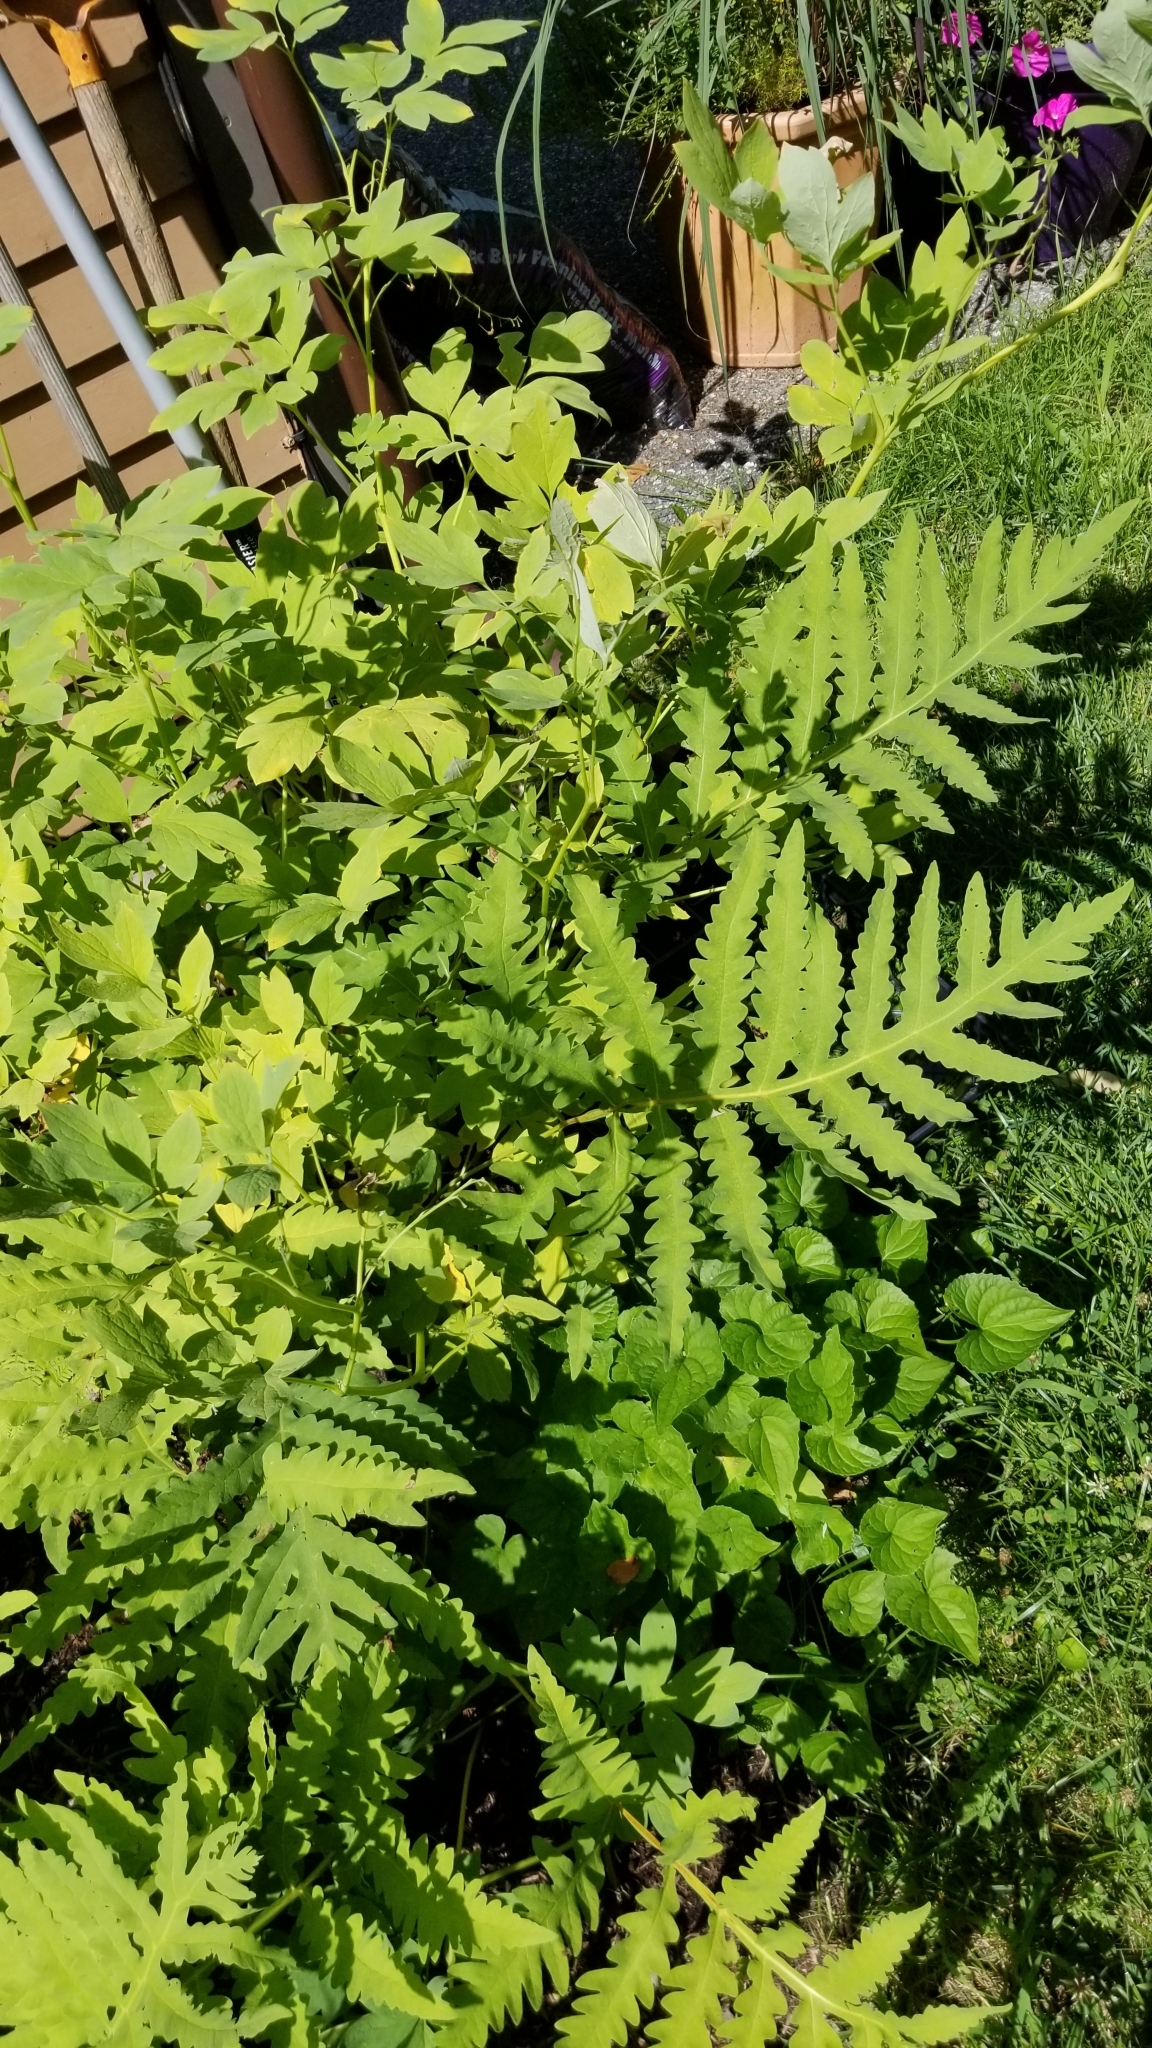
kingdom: Plantae
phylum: Tracheophyta
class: Polypodiopsida
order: Polypodiales
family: Onocleaceae
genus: Onoclea
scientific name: Onoclea sensibilis
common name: Sensitive fern
